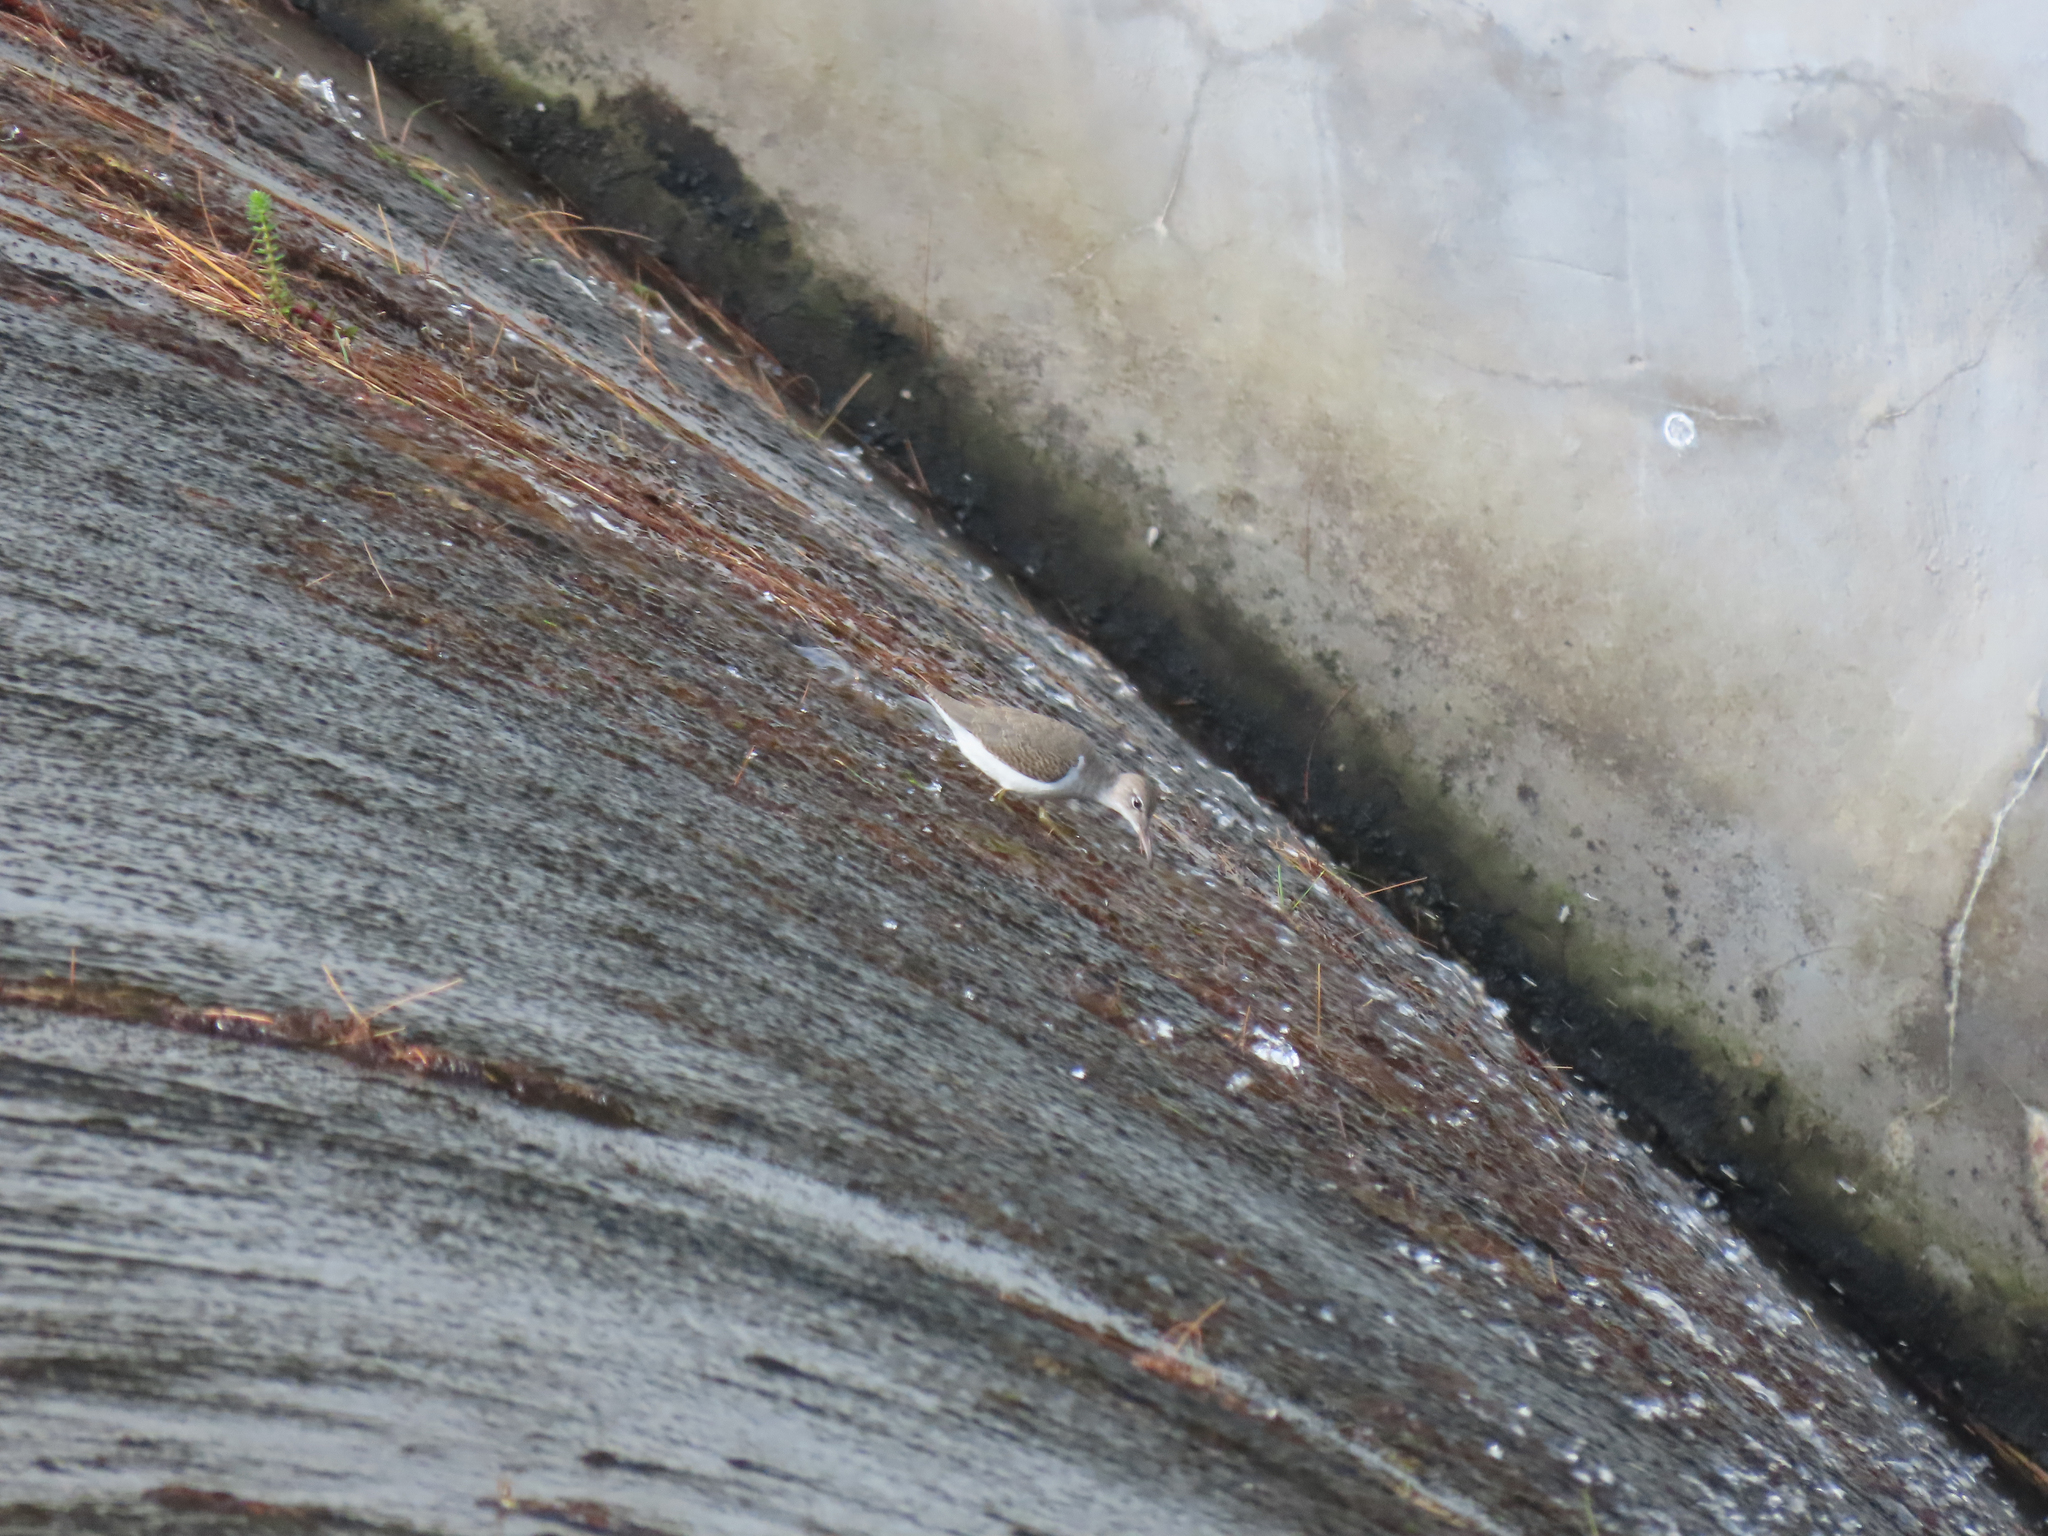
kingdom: Animalia
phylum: Chordata
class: Aves
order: Charadriiformes
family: Scolopacidae
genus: Actitis
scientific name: Actitis macularius
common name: Spotted sandpiper
